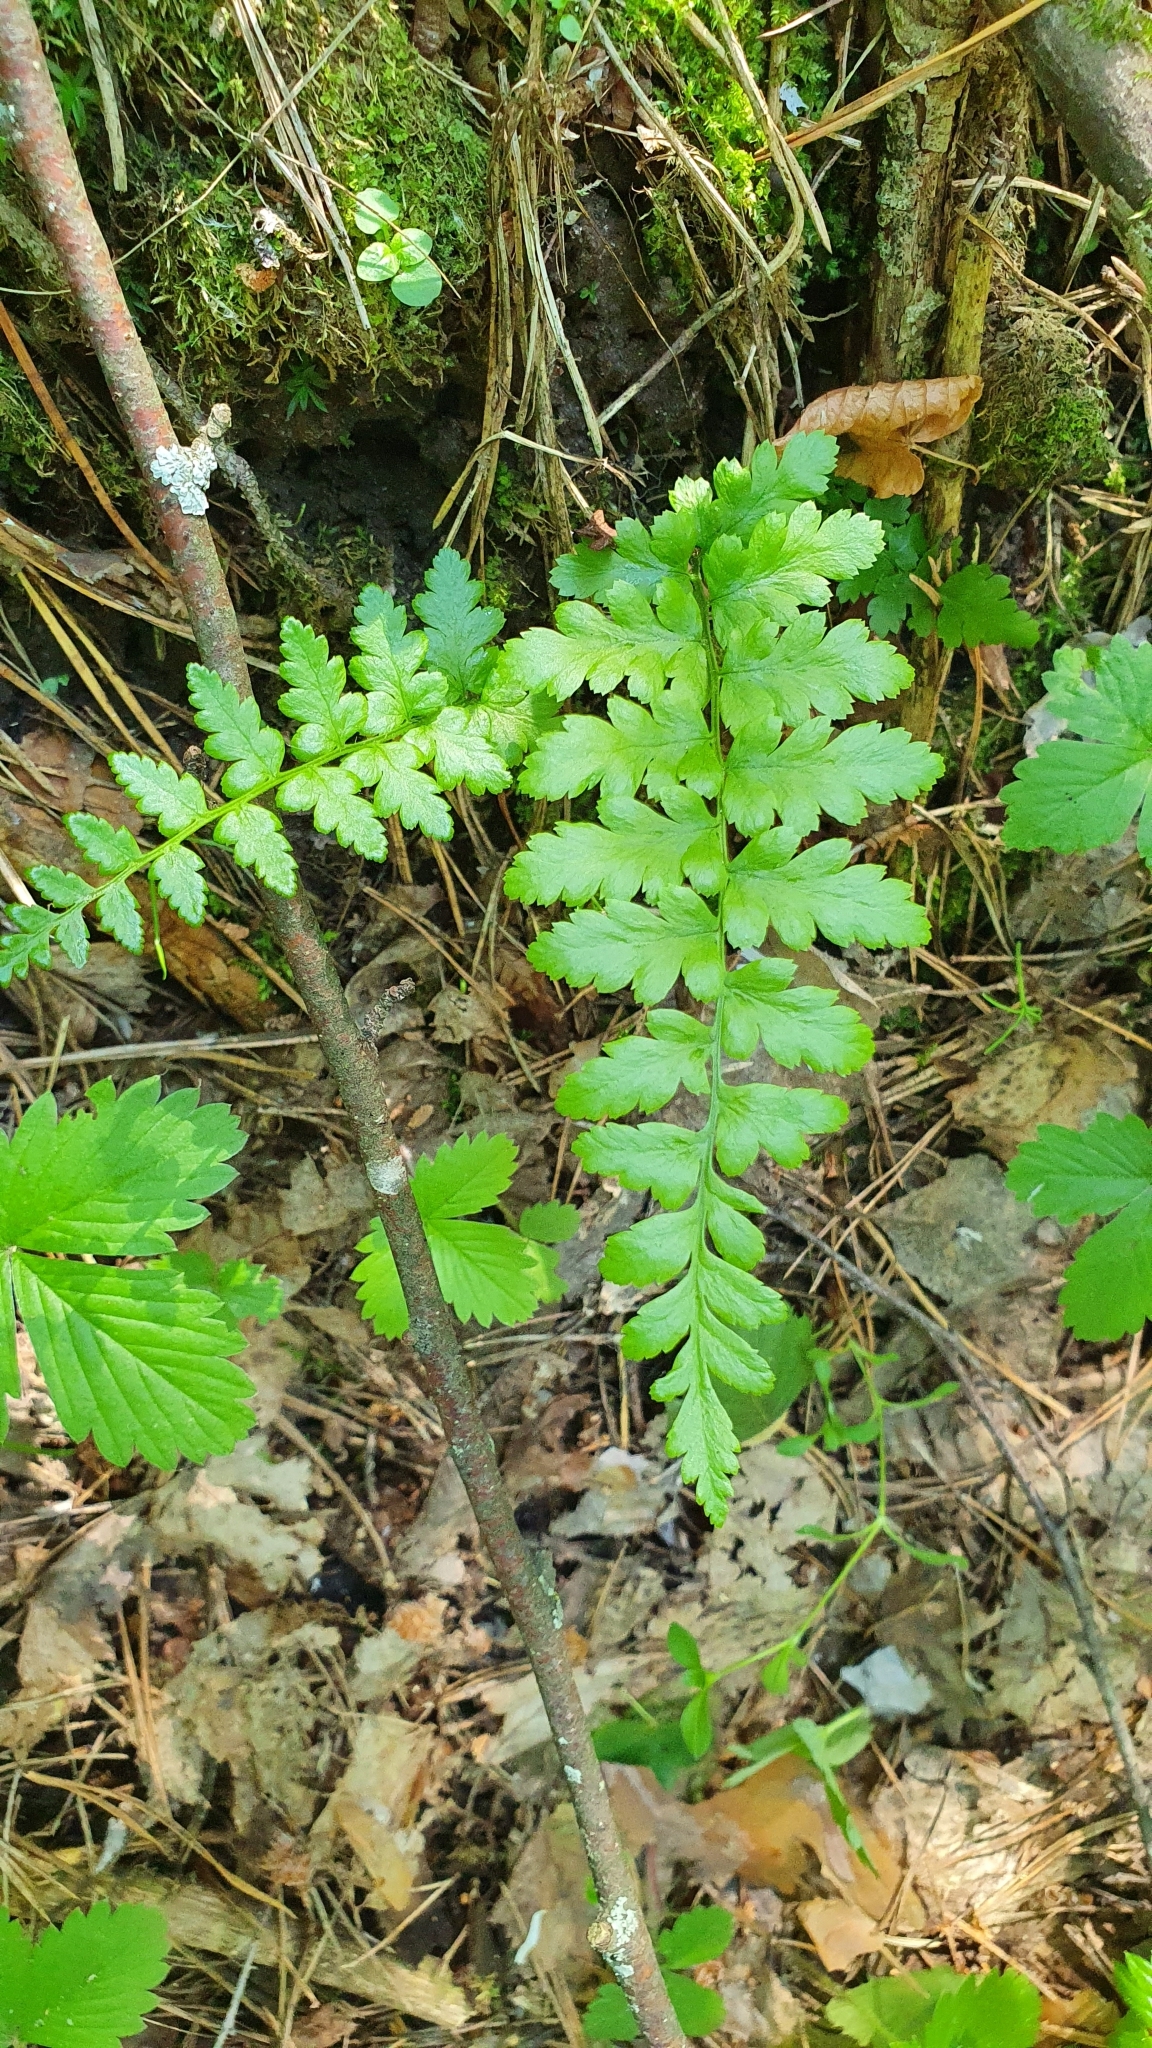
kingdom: Plantae
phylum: Tracheophyta
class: Polypodiopsida
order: Polypodiales
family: Dryopteridaceae
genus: Dryopteris
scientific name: Dryopteris
